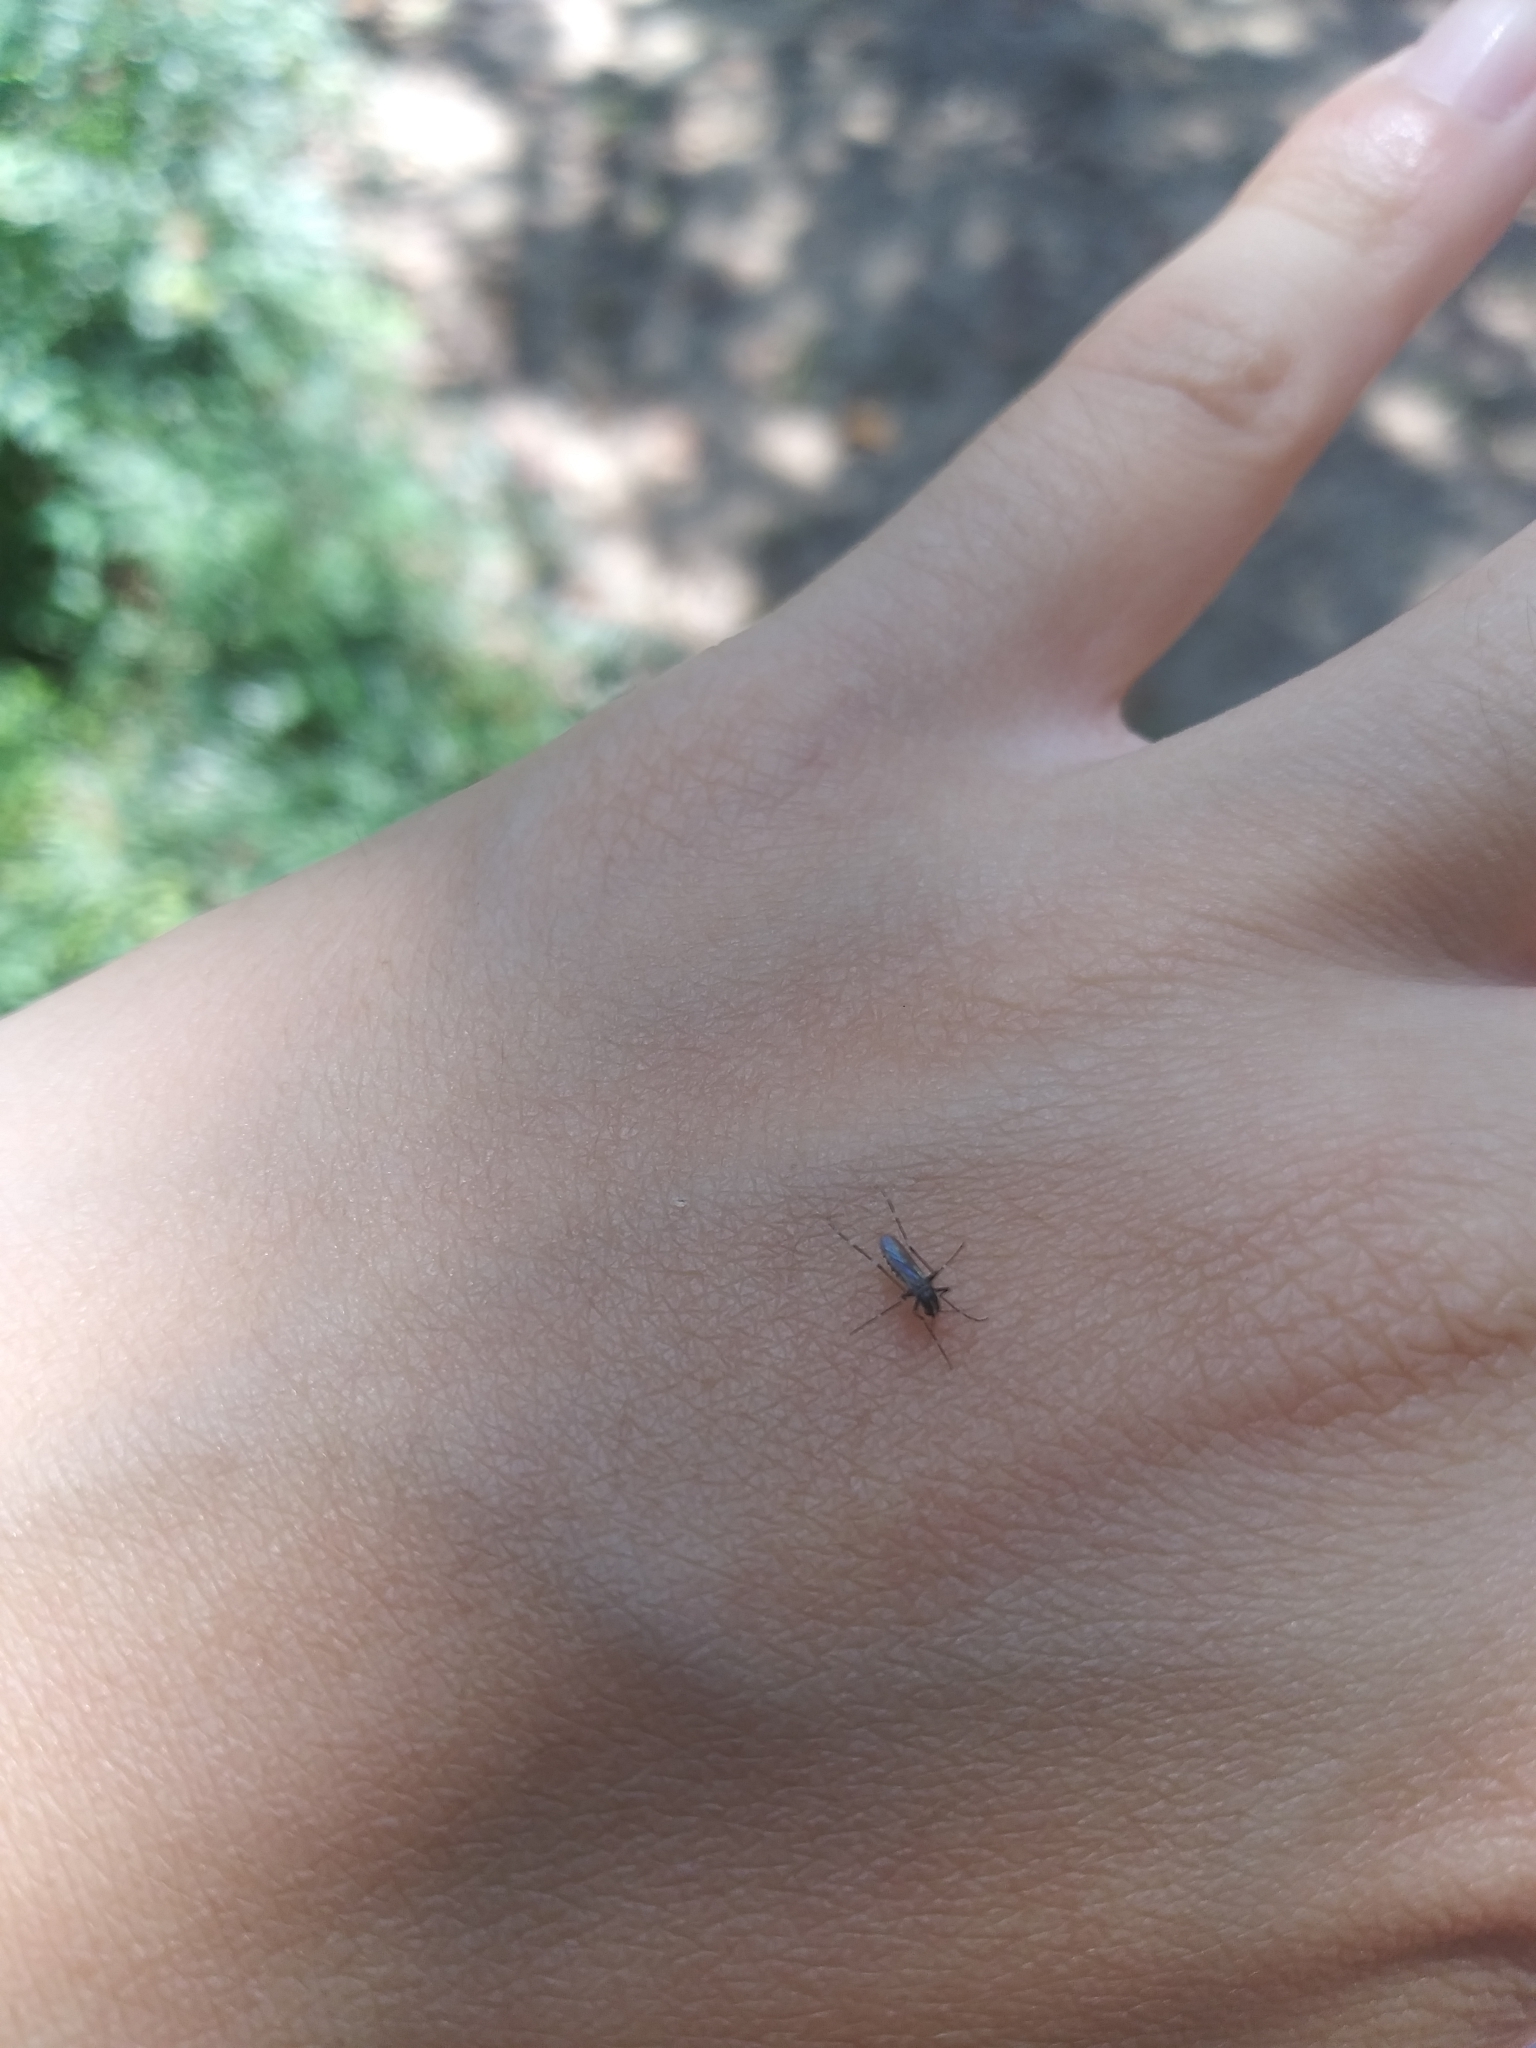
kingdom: Animalia
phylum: Arthropoda
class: Insecta
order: Diptera
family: Culicidae
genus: Aedes
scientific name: Aedes albopictus
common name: Tiger mosquito
